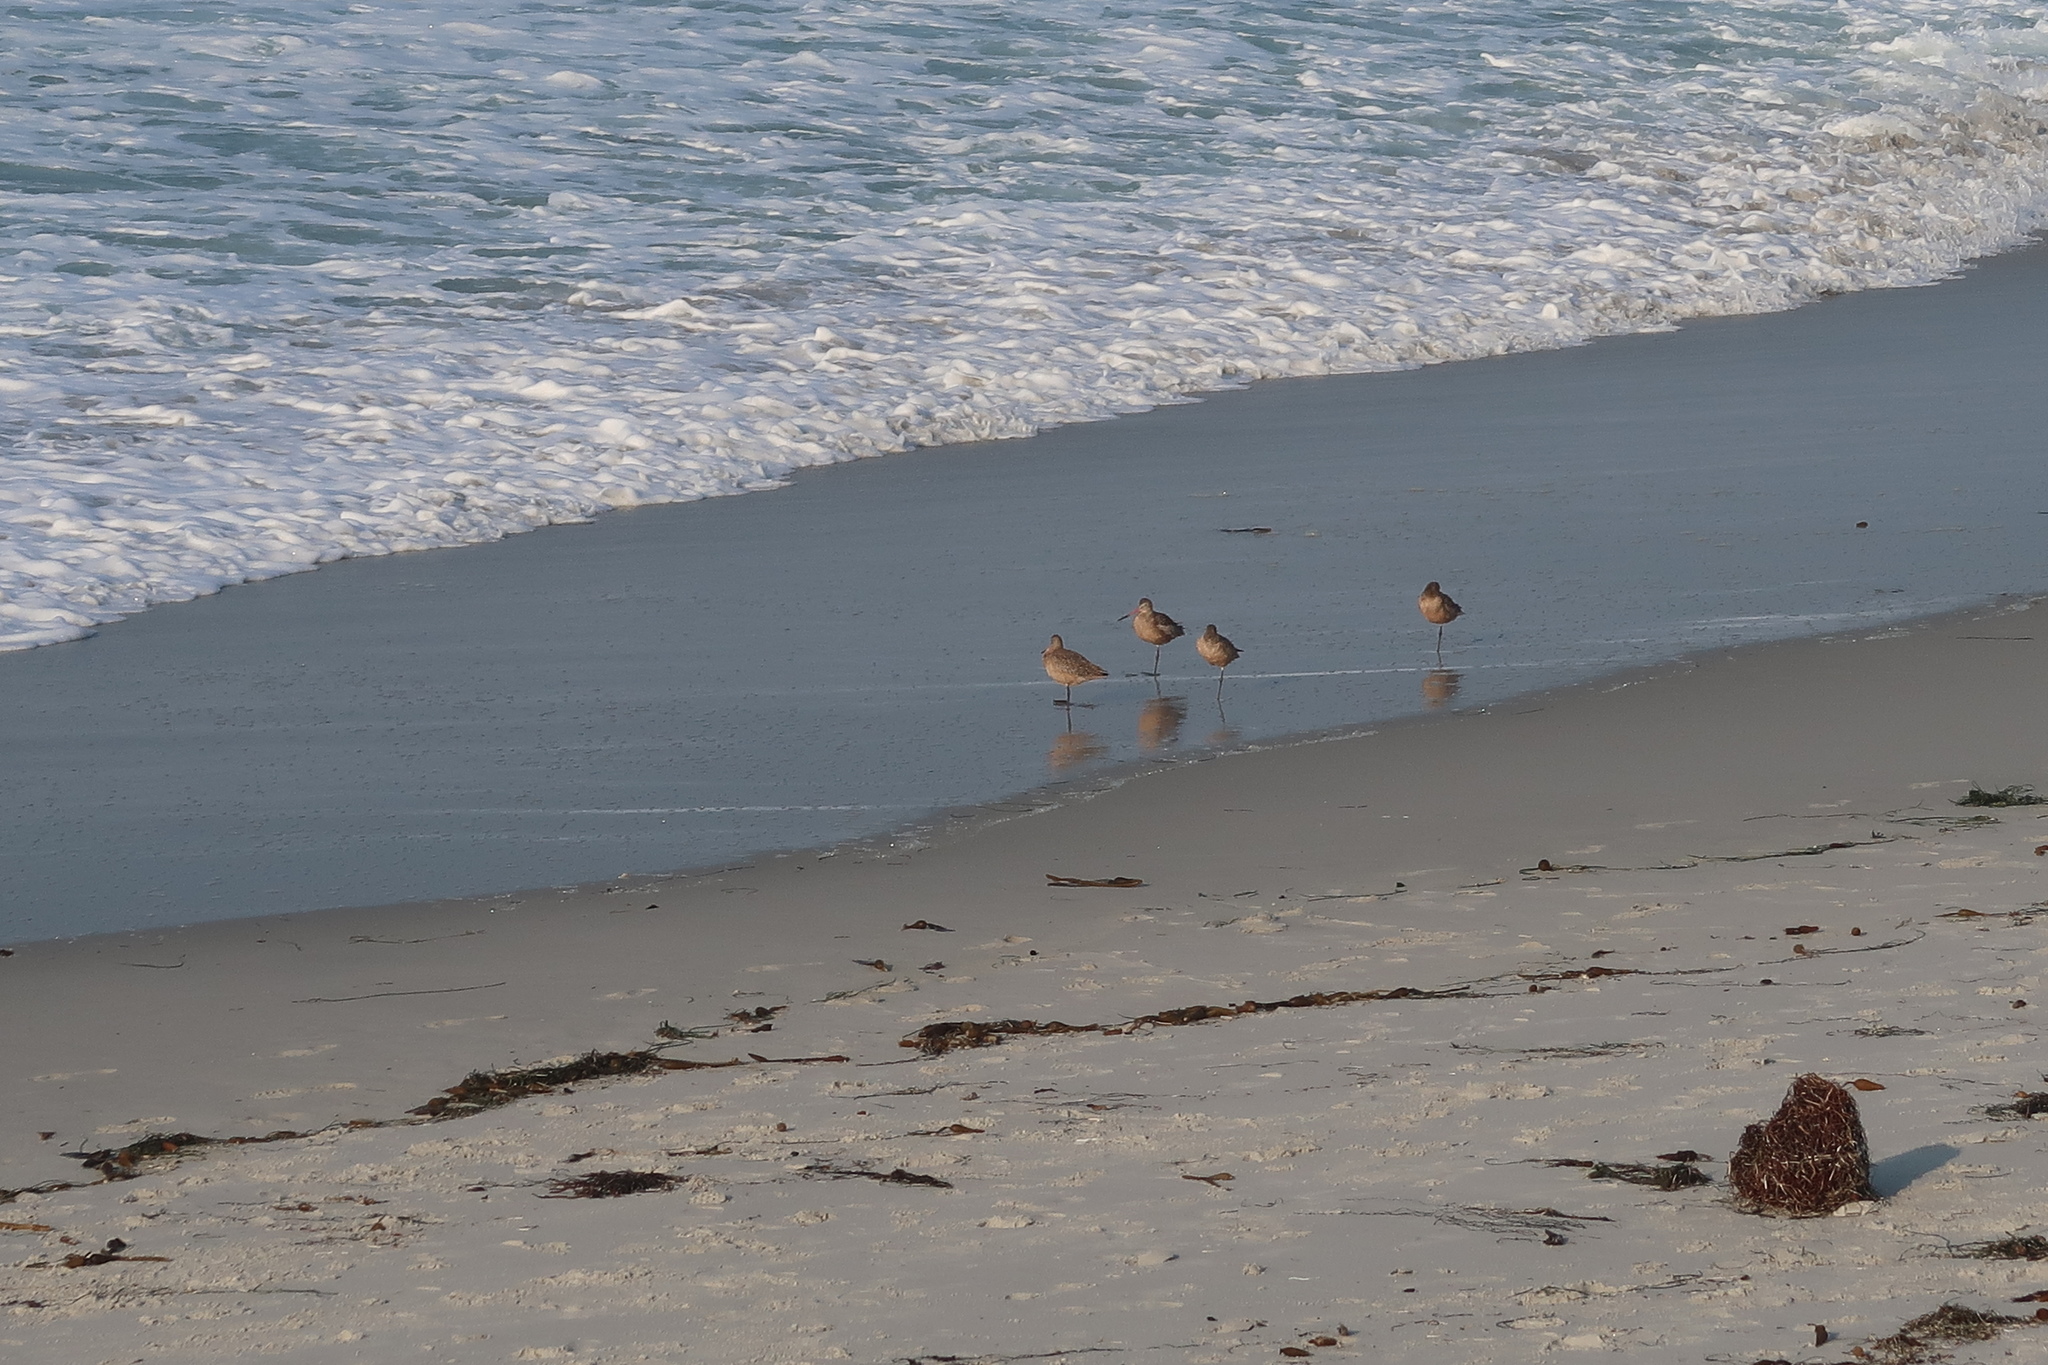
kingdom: Animalia
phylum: Chordata
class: Aves
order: Charadriiformes
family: Scolopacidae
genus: Limosa
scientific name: Limosa fedoa
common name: Marbled godwit
